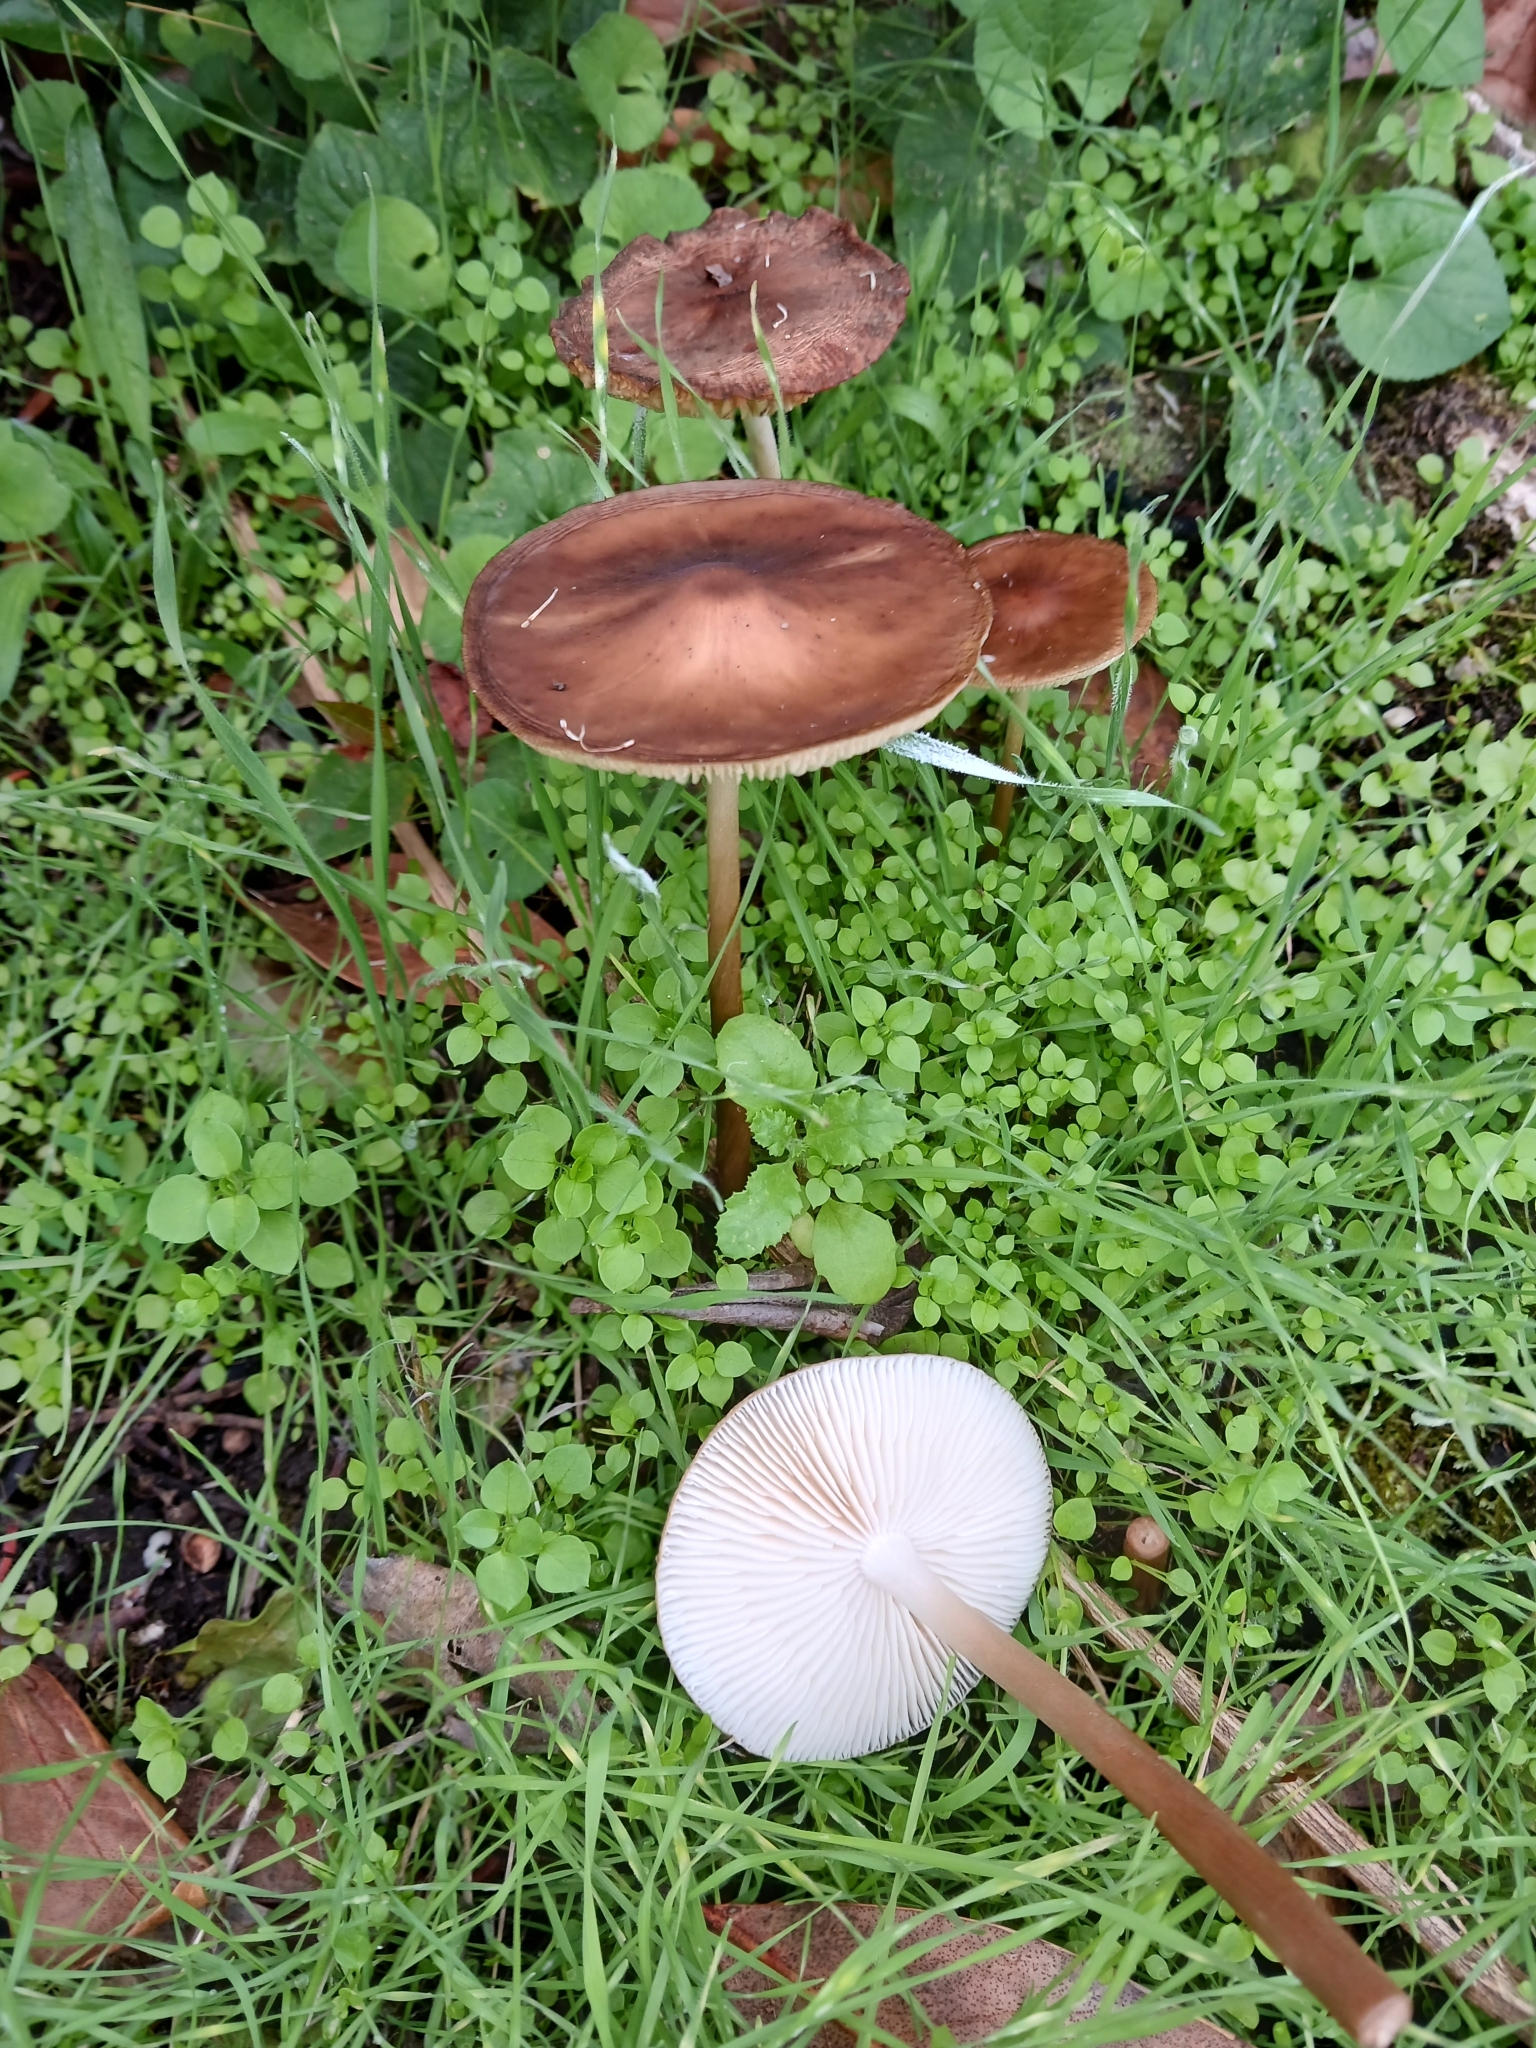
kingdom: Fungi
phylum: Basidiomycota
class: Agaricomycetes
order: Agaricales
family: Physalacriaceae
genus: Hymenopellis
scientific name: Hymenopellis radicata
